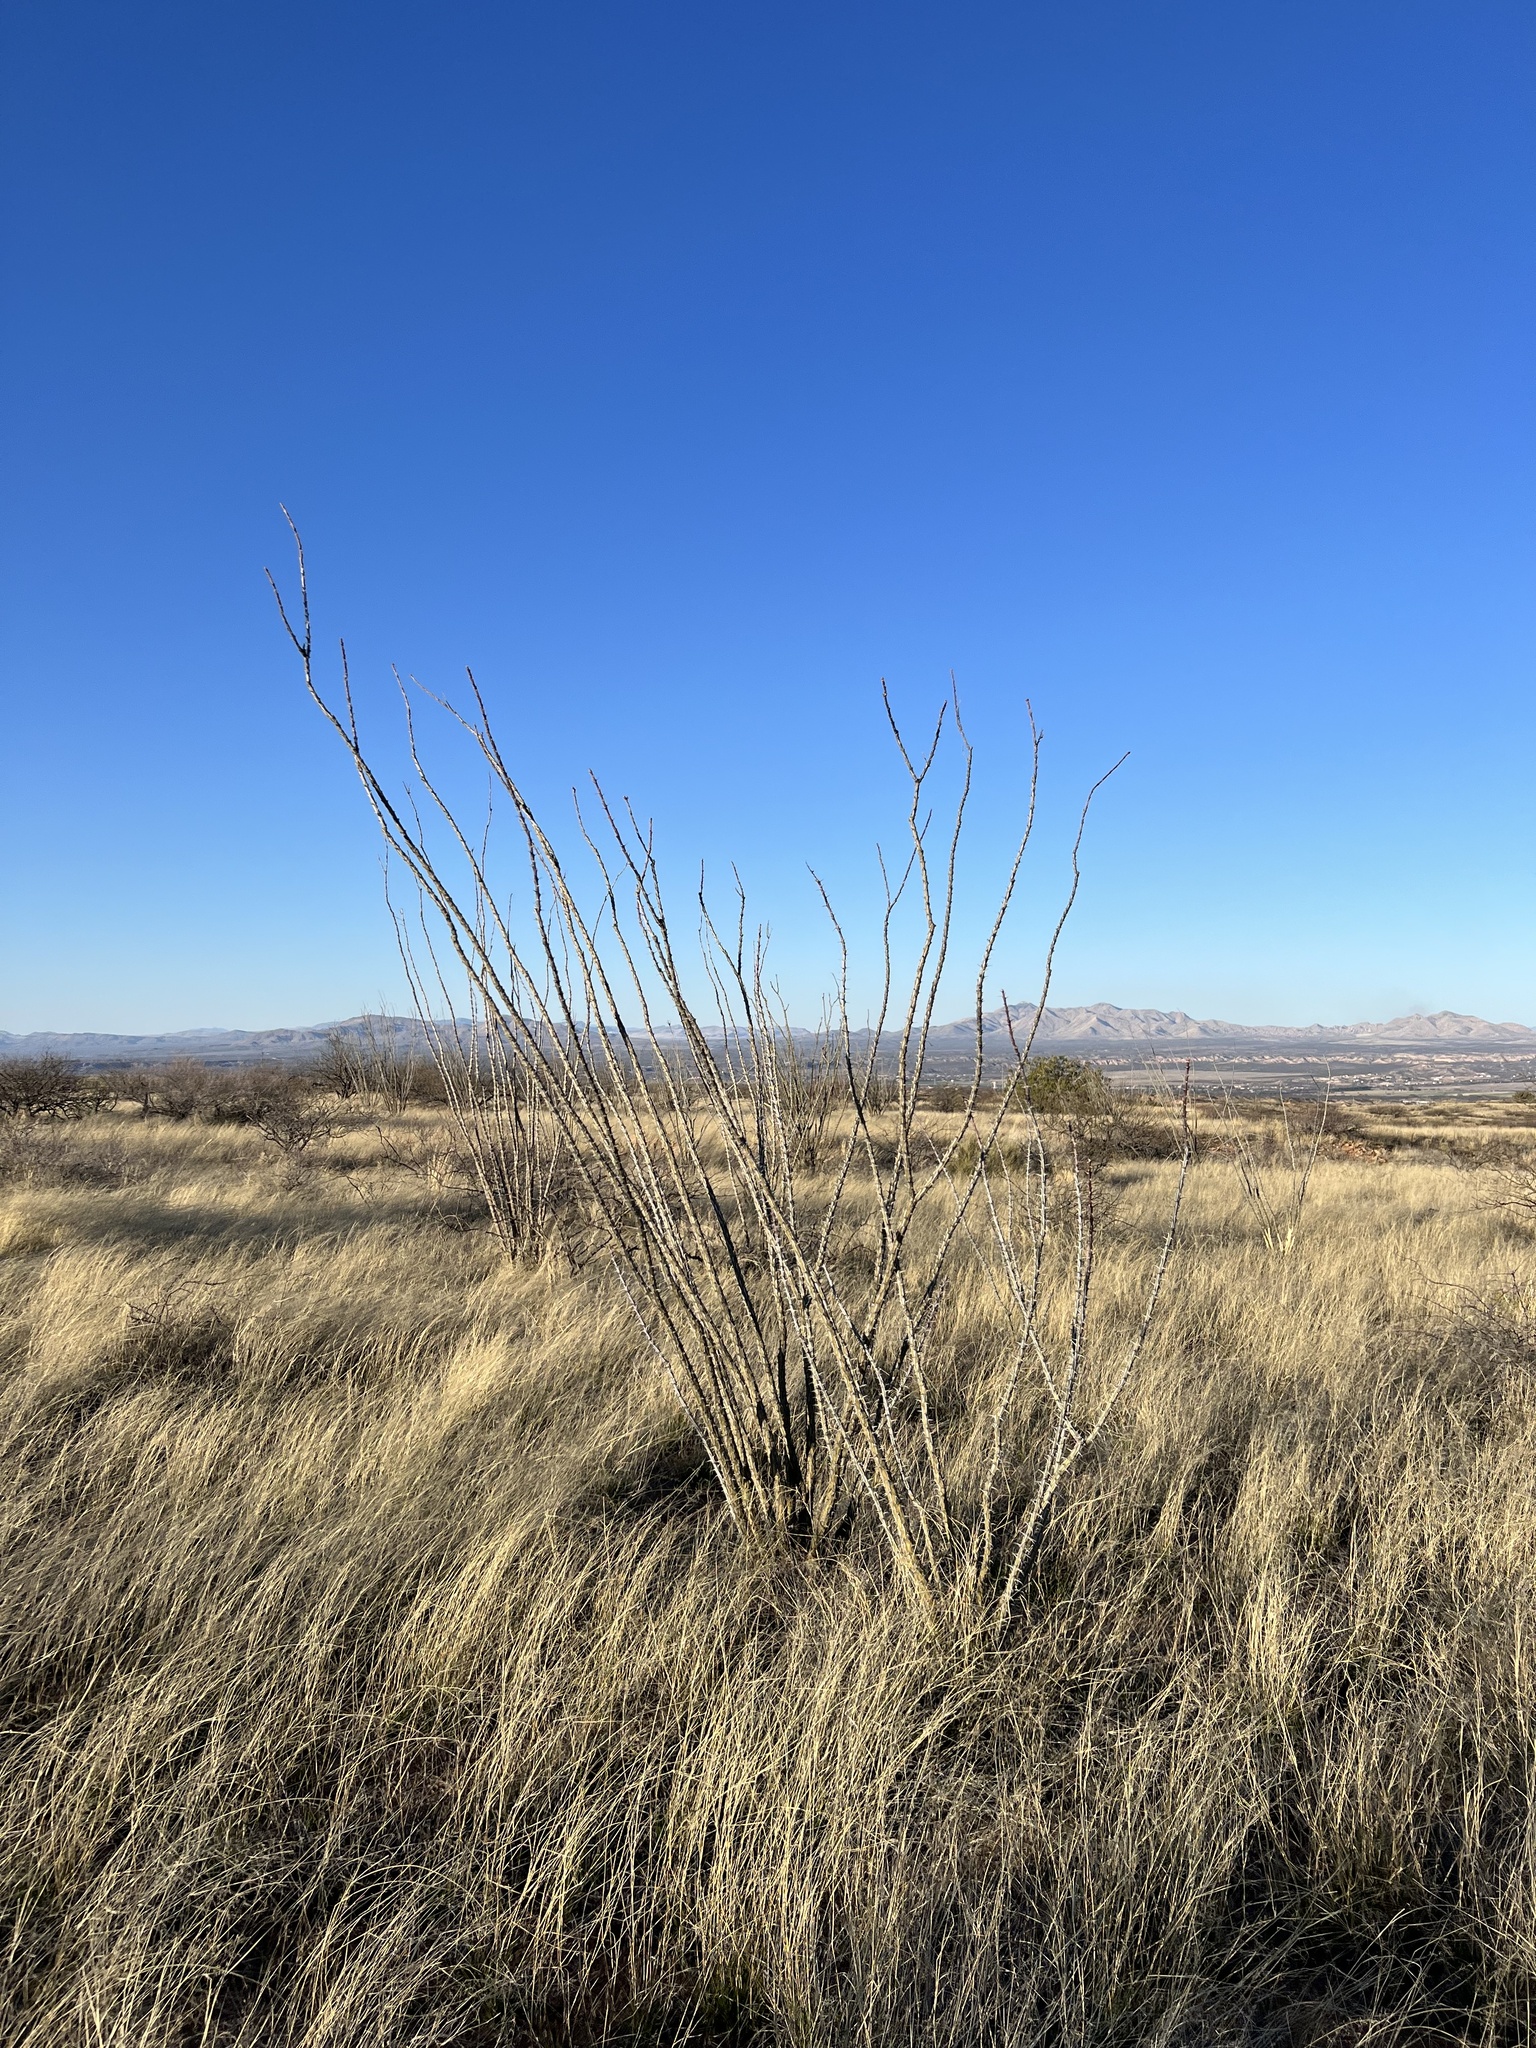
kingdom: Plantae
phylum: Tracheophyta
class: Magnoliopsida
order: Ericales
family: Fouquieriaceae
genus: Fouquieria
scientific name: Fouquieria splendens
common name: Vine-cactus
